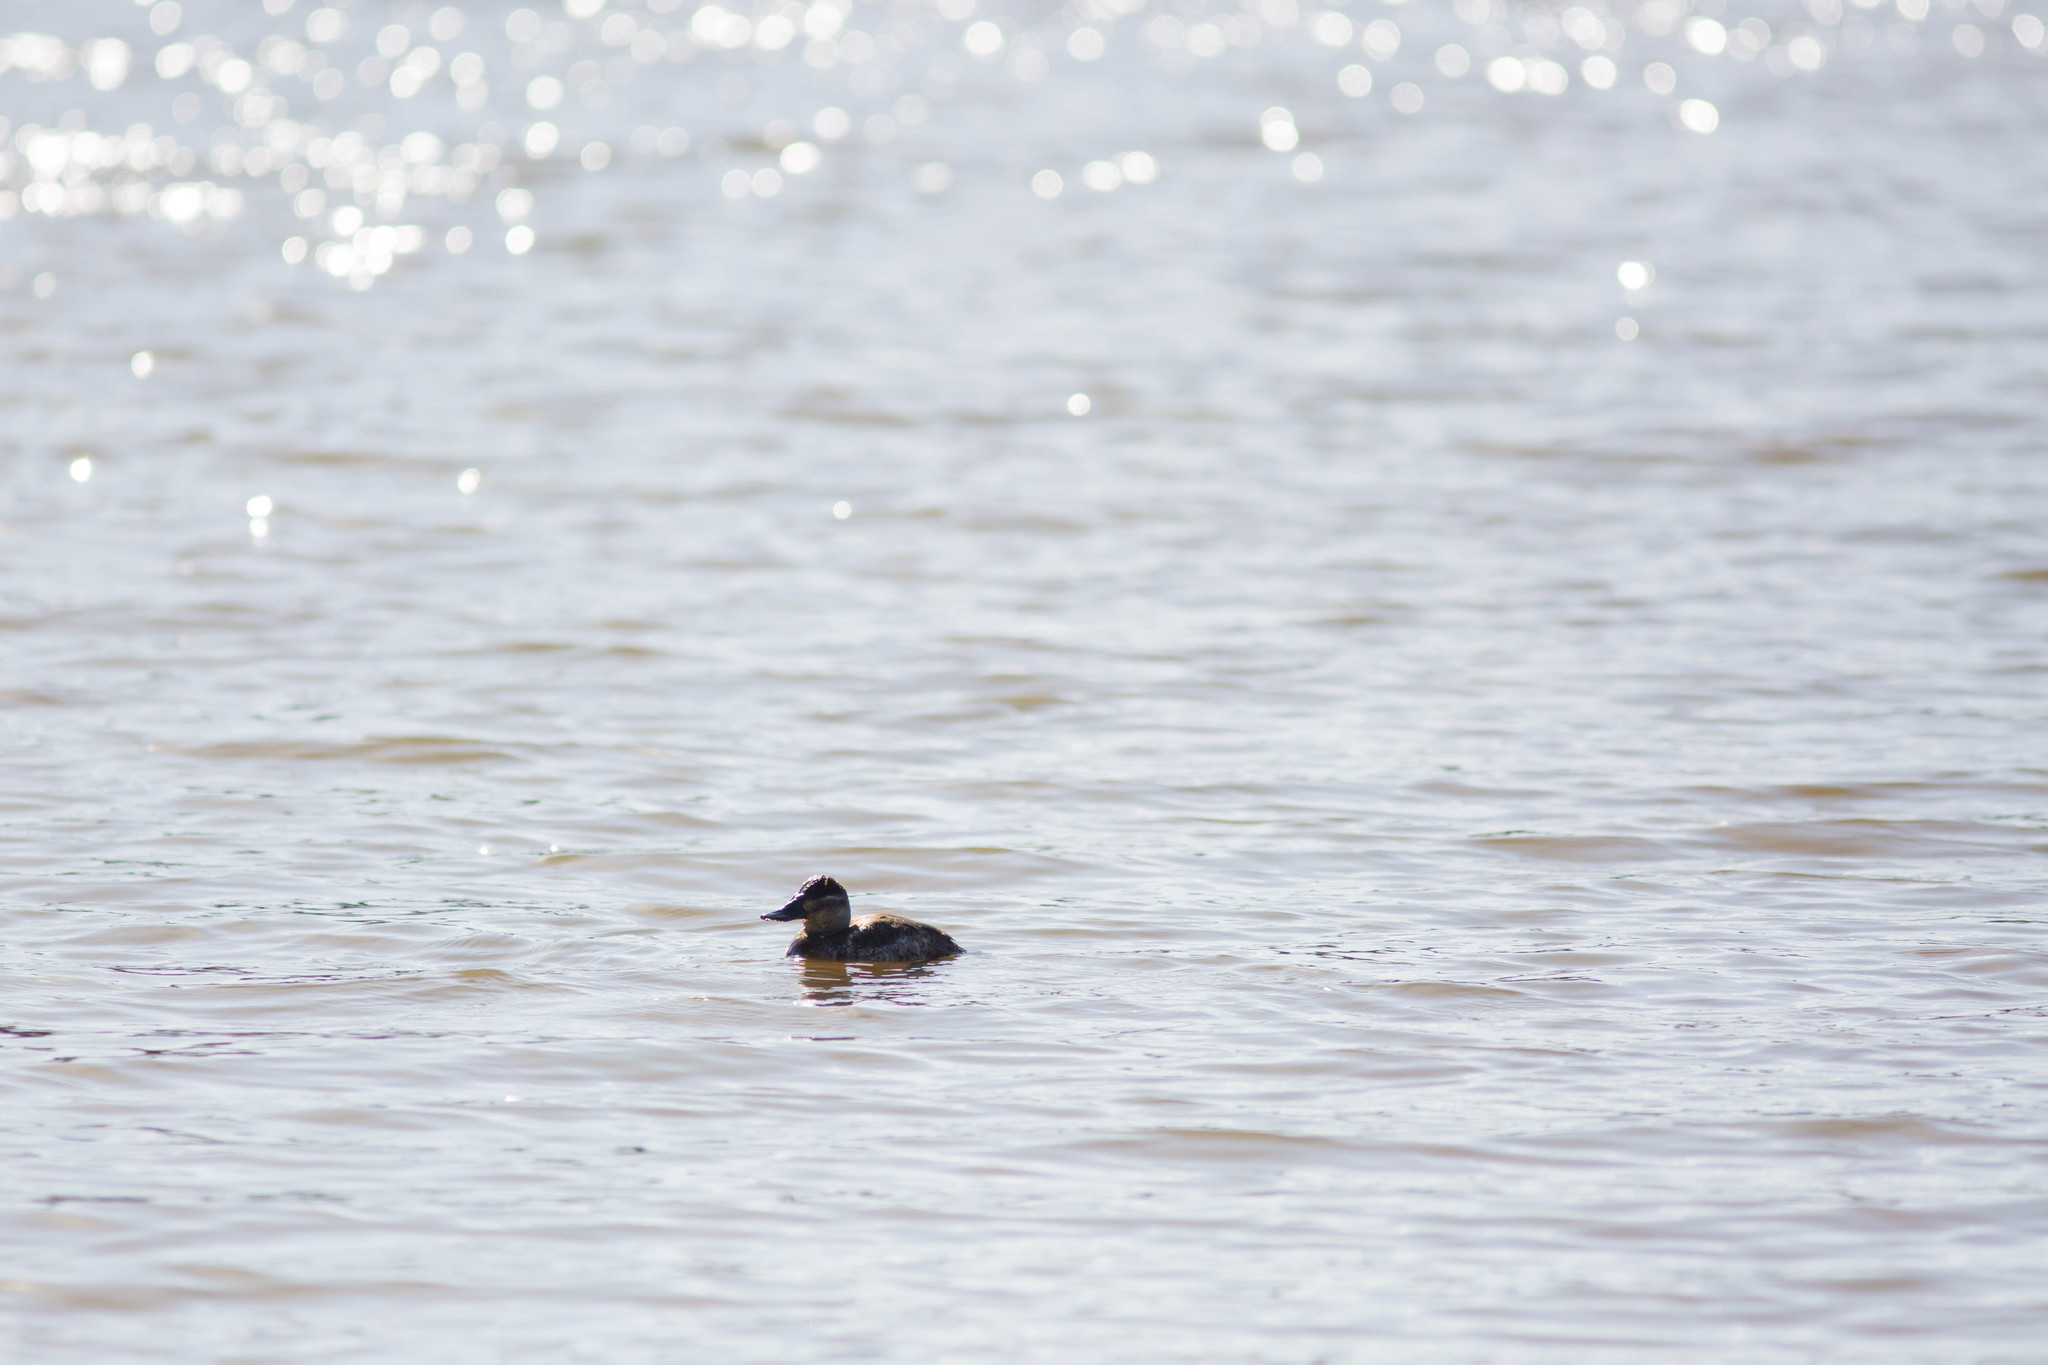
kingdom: Animalia
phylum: Chordata
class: Aves
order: Anseriformes
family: Anatidae
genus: Oxyura
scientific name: Oxyura jamaicensis
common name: Ruddy duck
